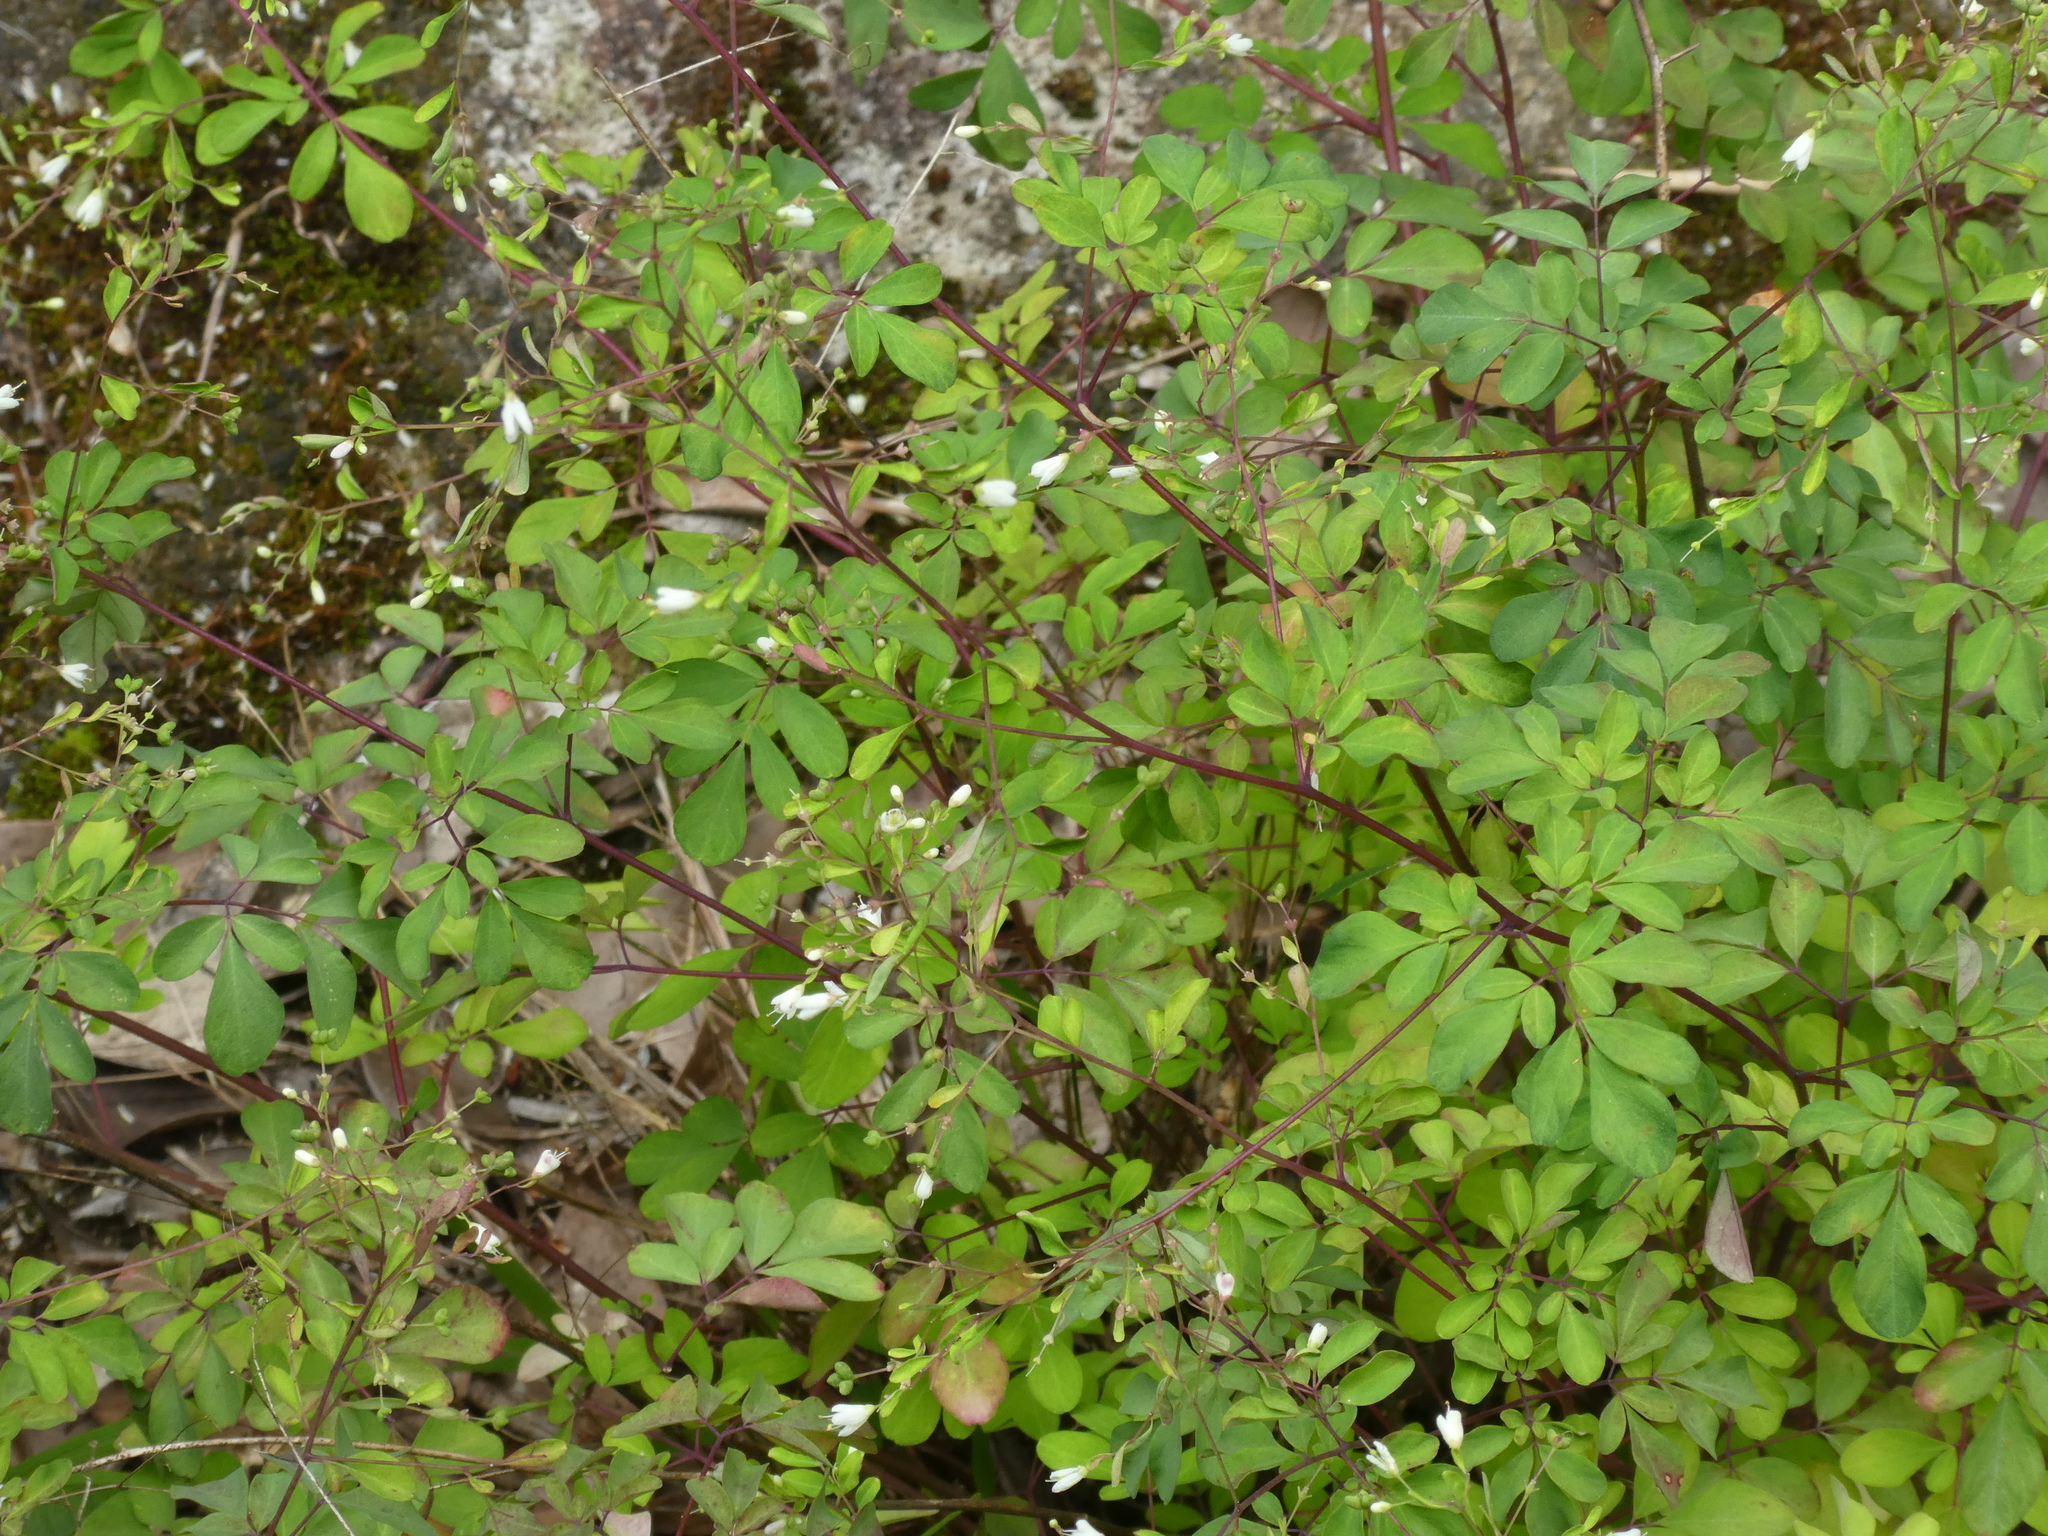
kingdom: Plantae
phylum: Tracheophyta
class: Magnoliopsida
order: Sapindales
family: Rutaceae
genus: Boenninghausenia
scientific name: Boenninghausenia albiflora
